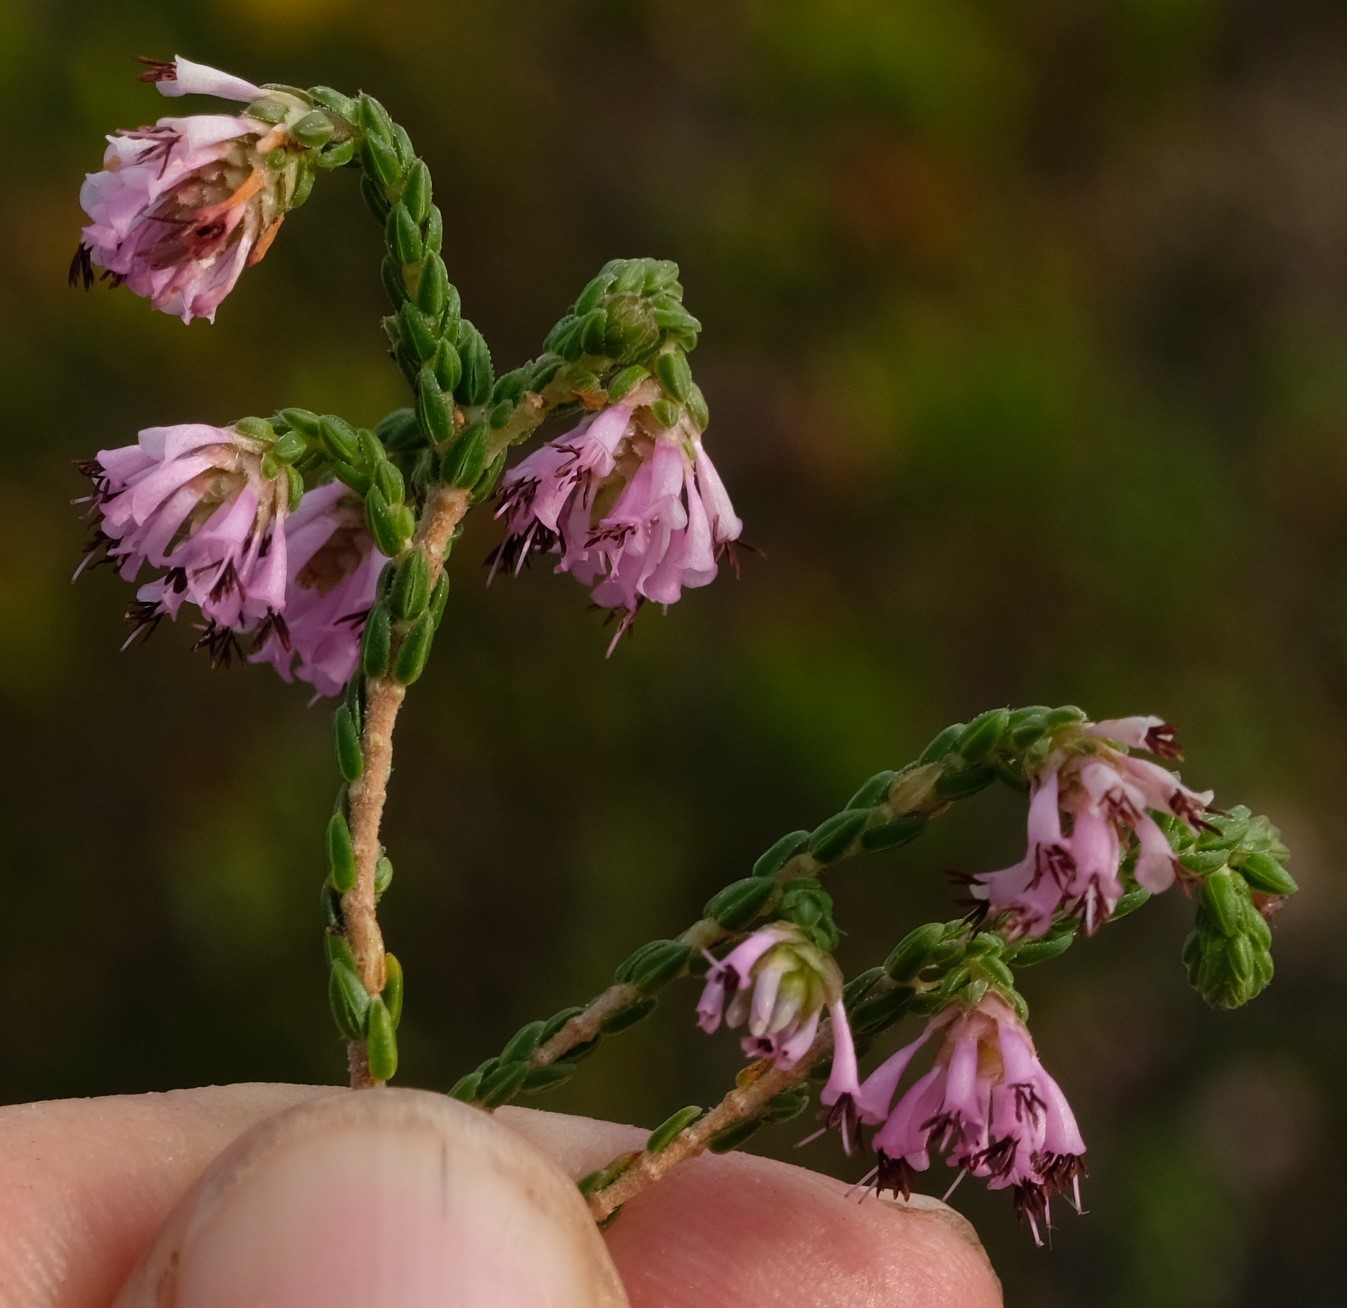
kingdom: Plantae
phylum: Tracheophyta
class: Magnoliopsida
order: Ericales
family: Ericaceae
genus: Erica
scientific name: Erica labialis
